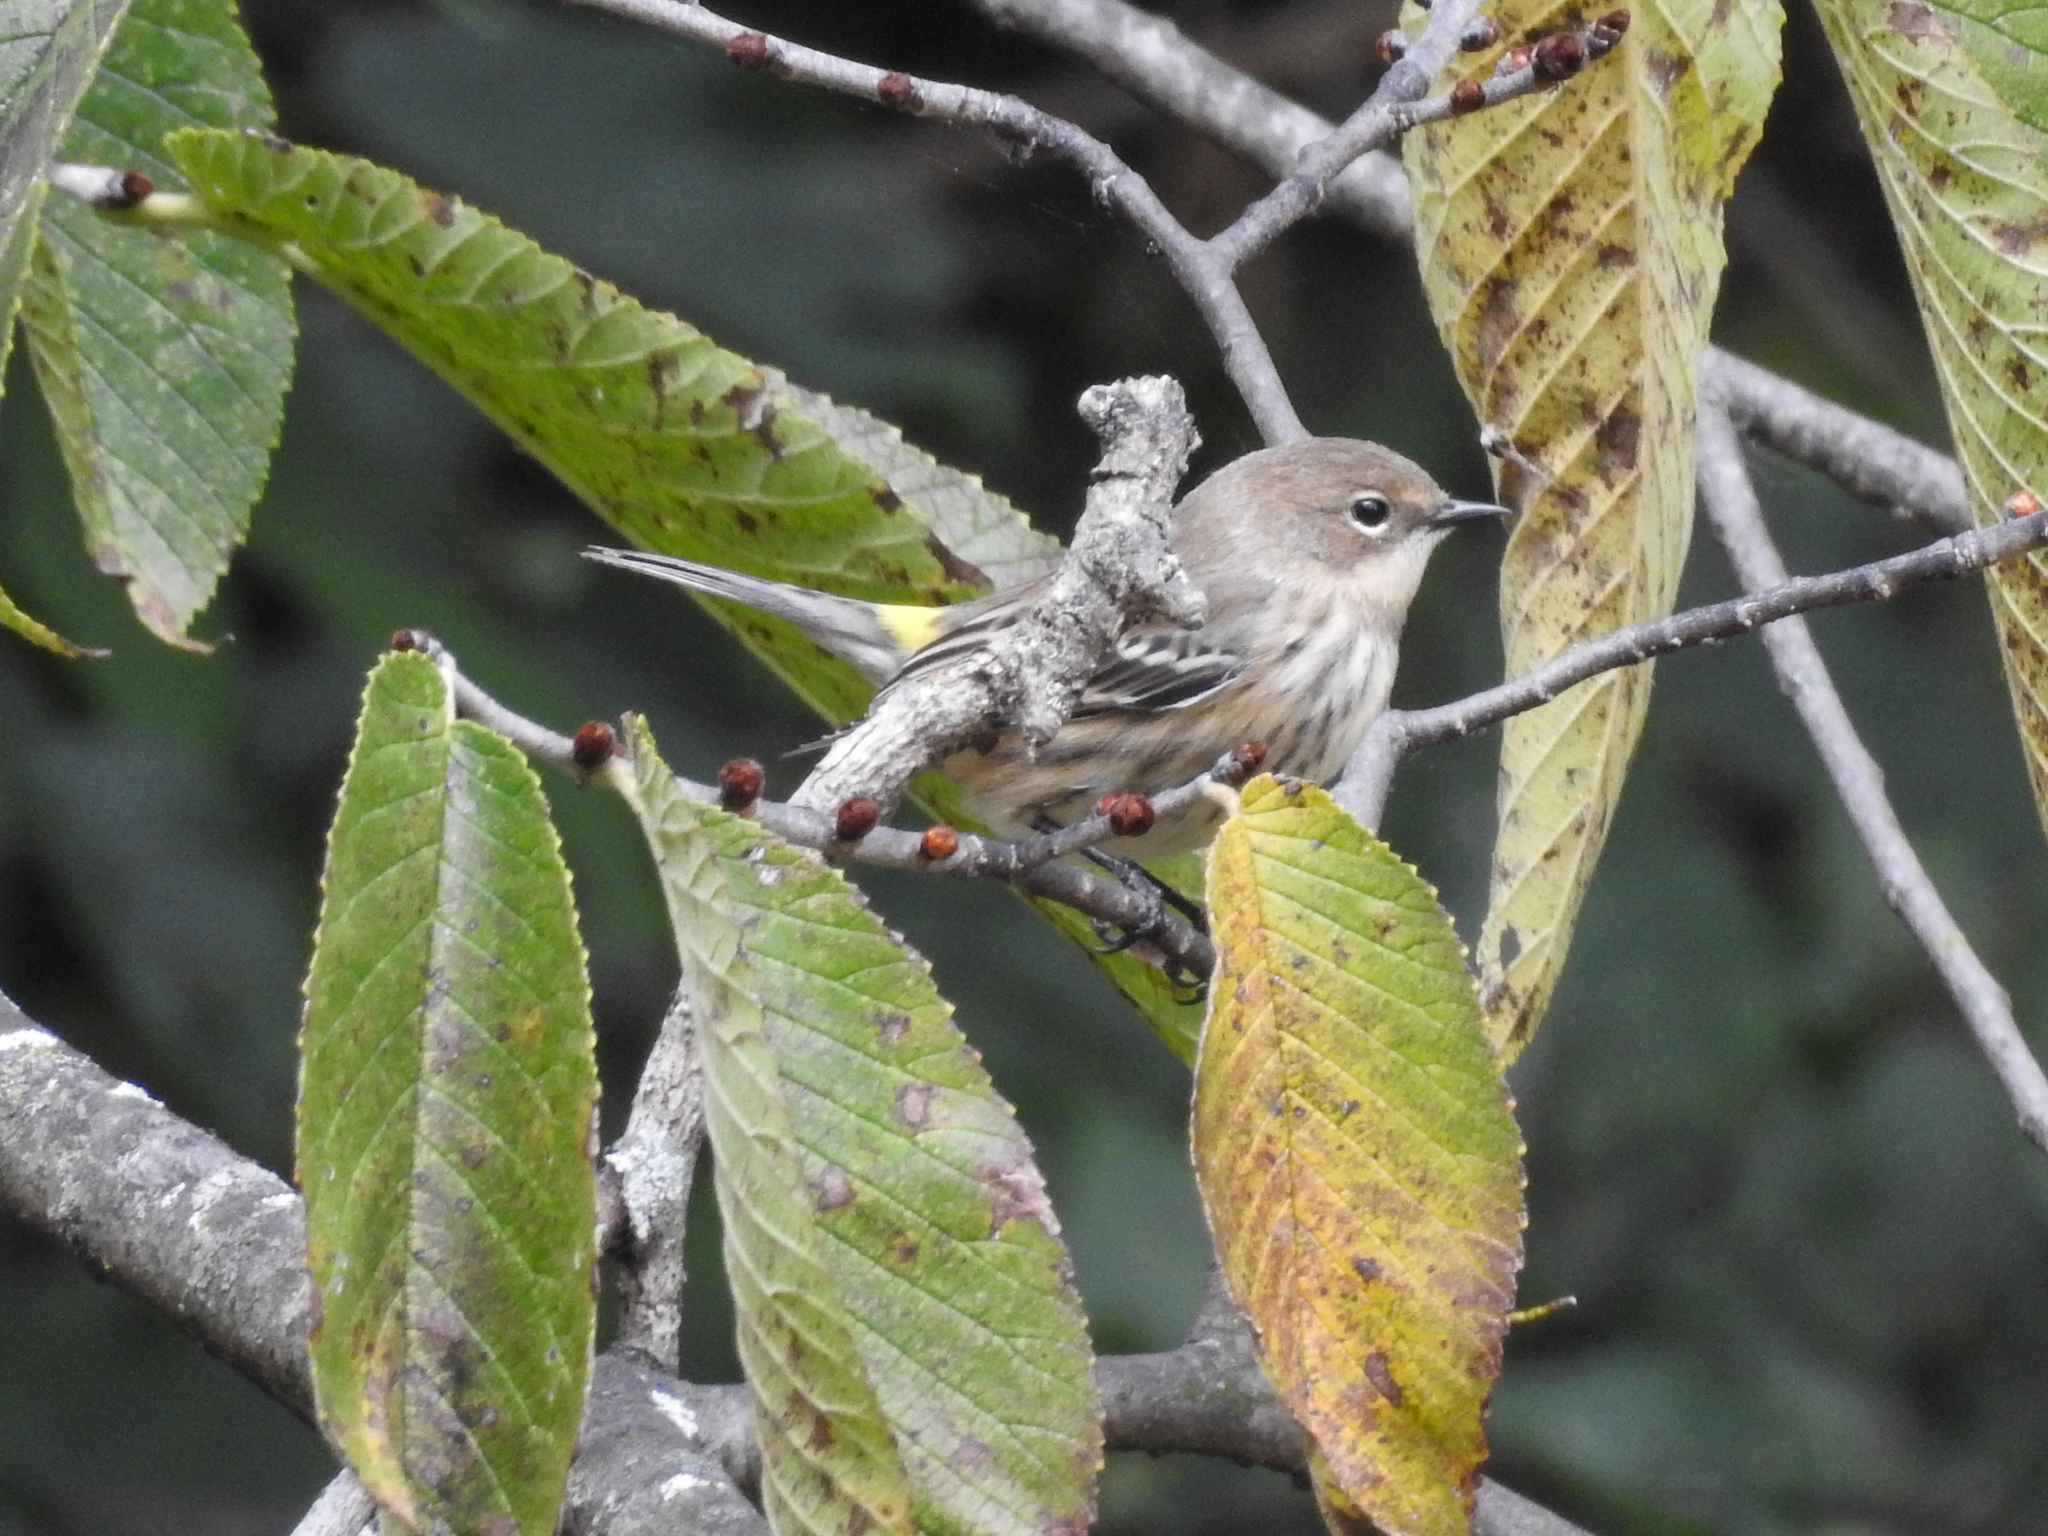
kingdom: Animalia
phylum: Chordata
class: Aves
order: Passeriformes
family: Parulidae
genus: Setophaga
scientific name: Setophaga coronata
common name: Myrtle warbler
